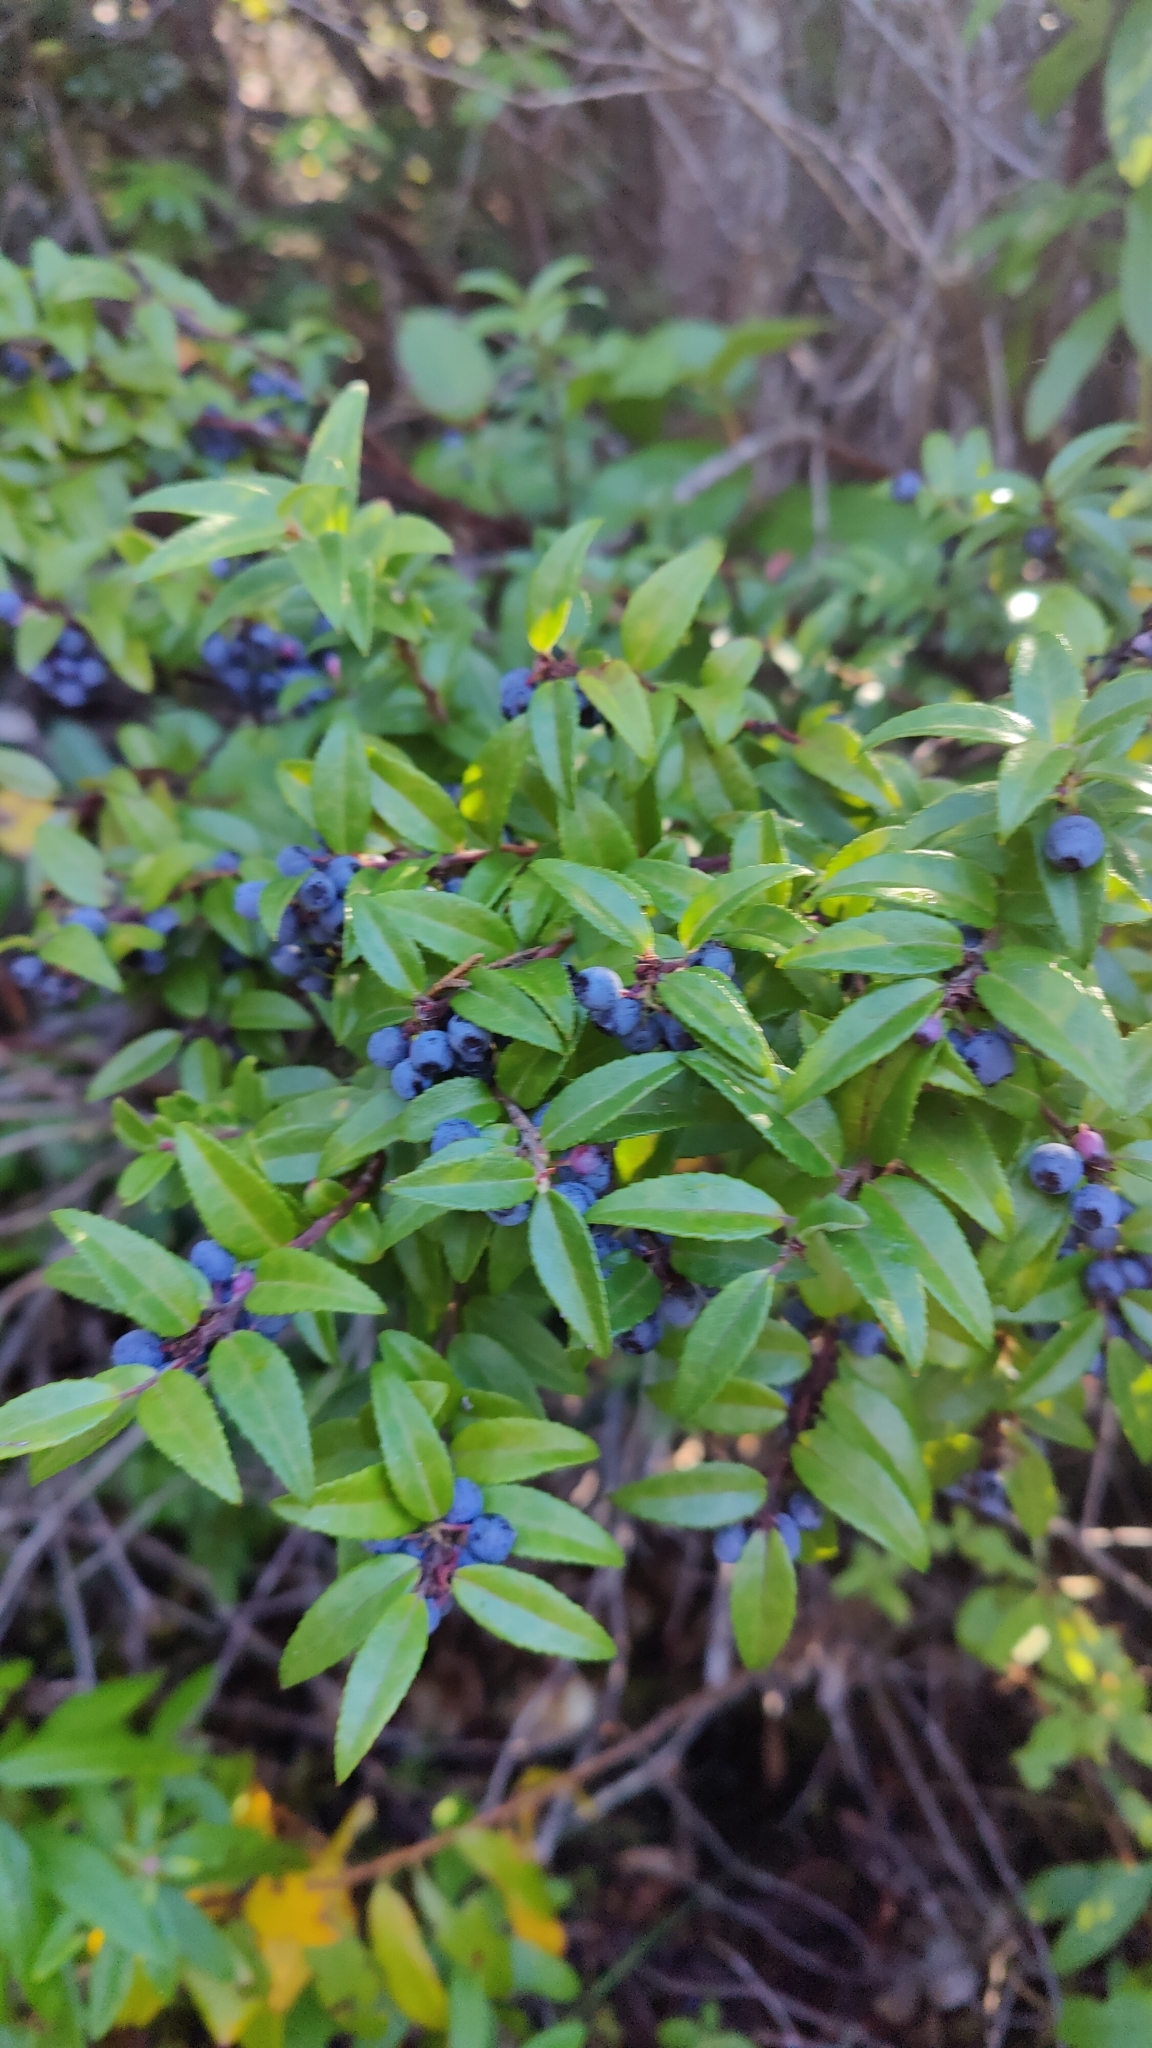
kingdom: Plantae
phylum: Tracheophyta
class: Magnoliopsida
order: Ericales
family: Ericaceae
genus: Vaccinium
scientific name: Vaccinium ovatum
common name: California-huckleberry
